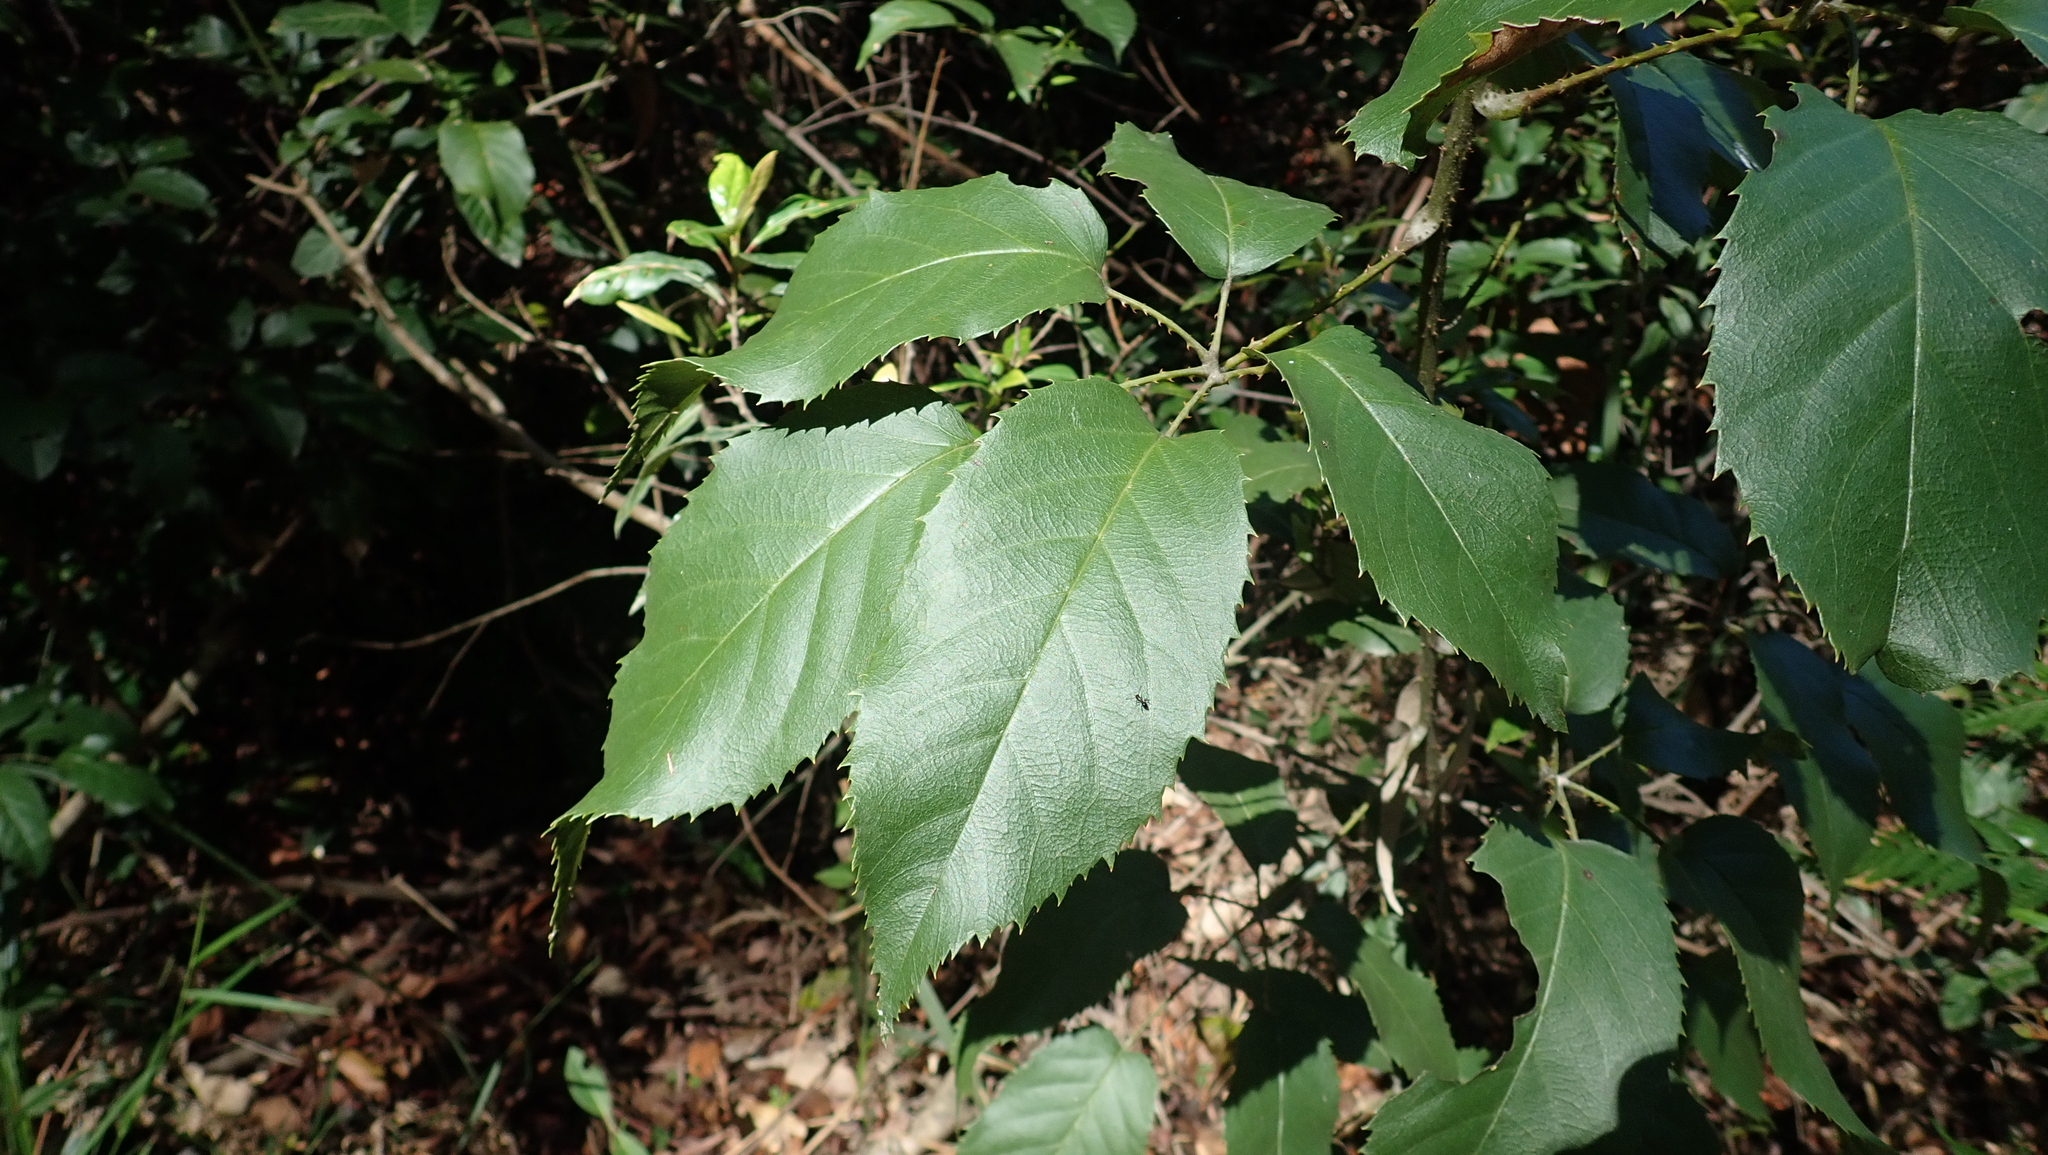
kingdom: Plantae
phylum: Tracheophyta
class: Magnoliopsida
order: Rosales
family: Rosaceae
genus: Rubus
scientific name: Rubus nebulosus
